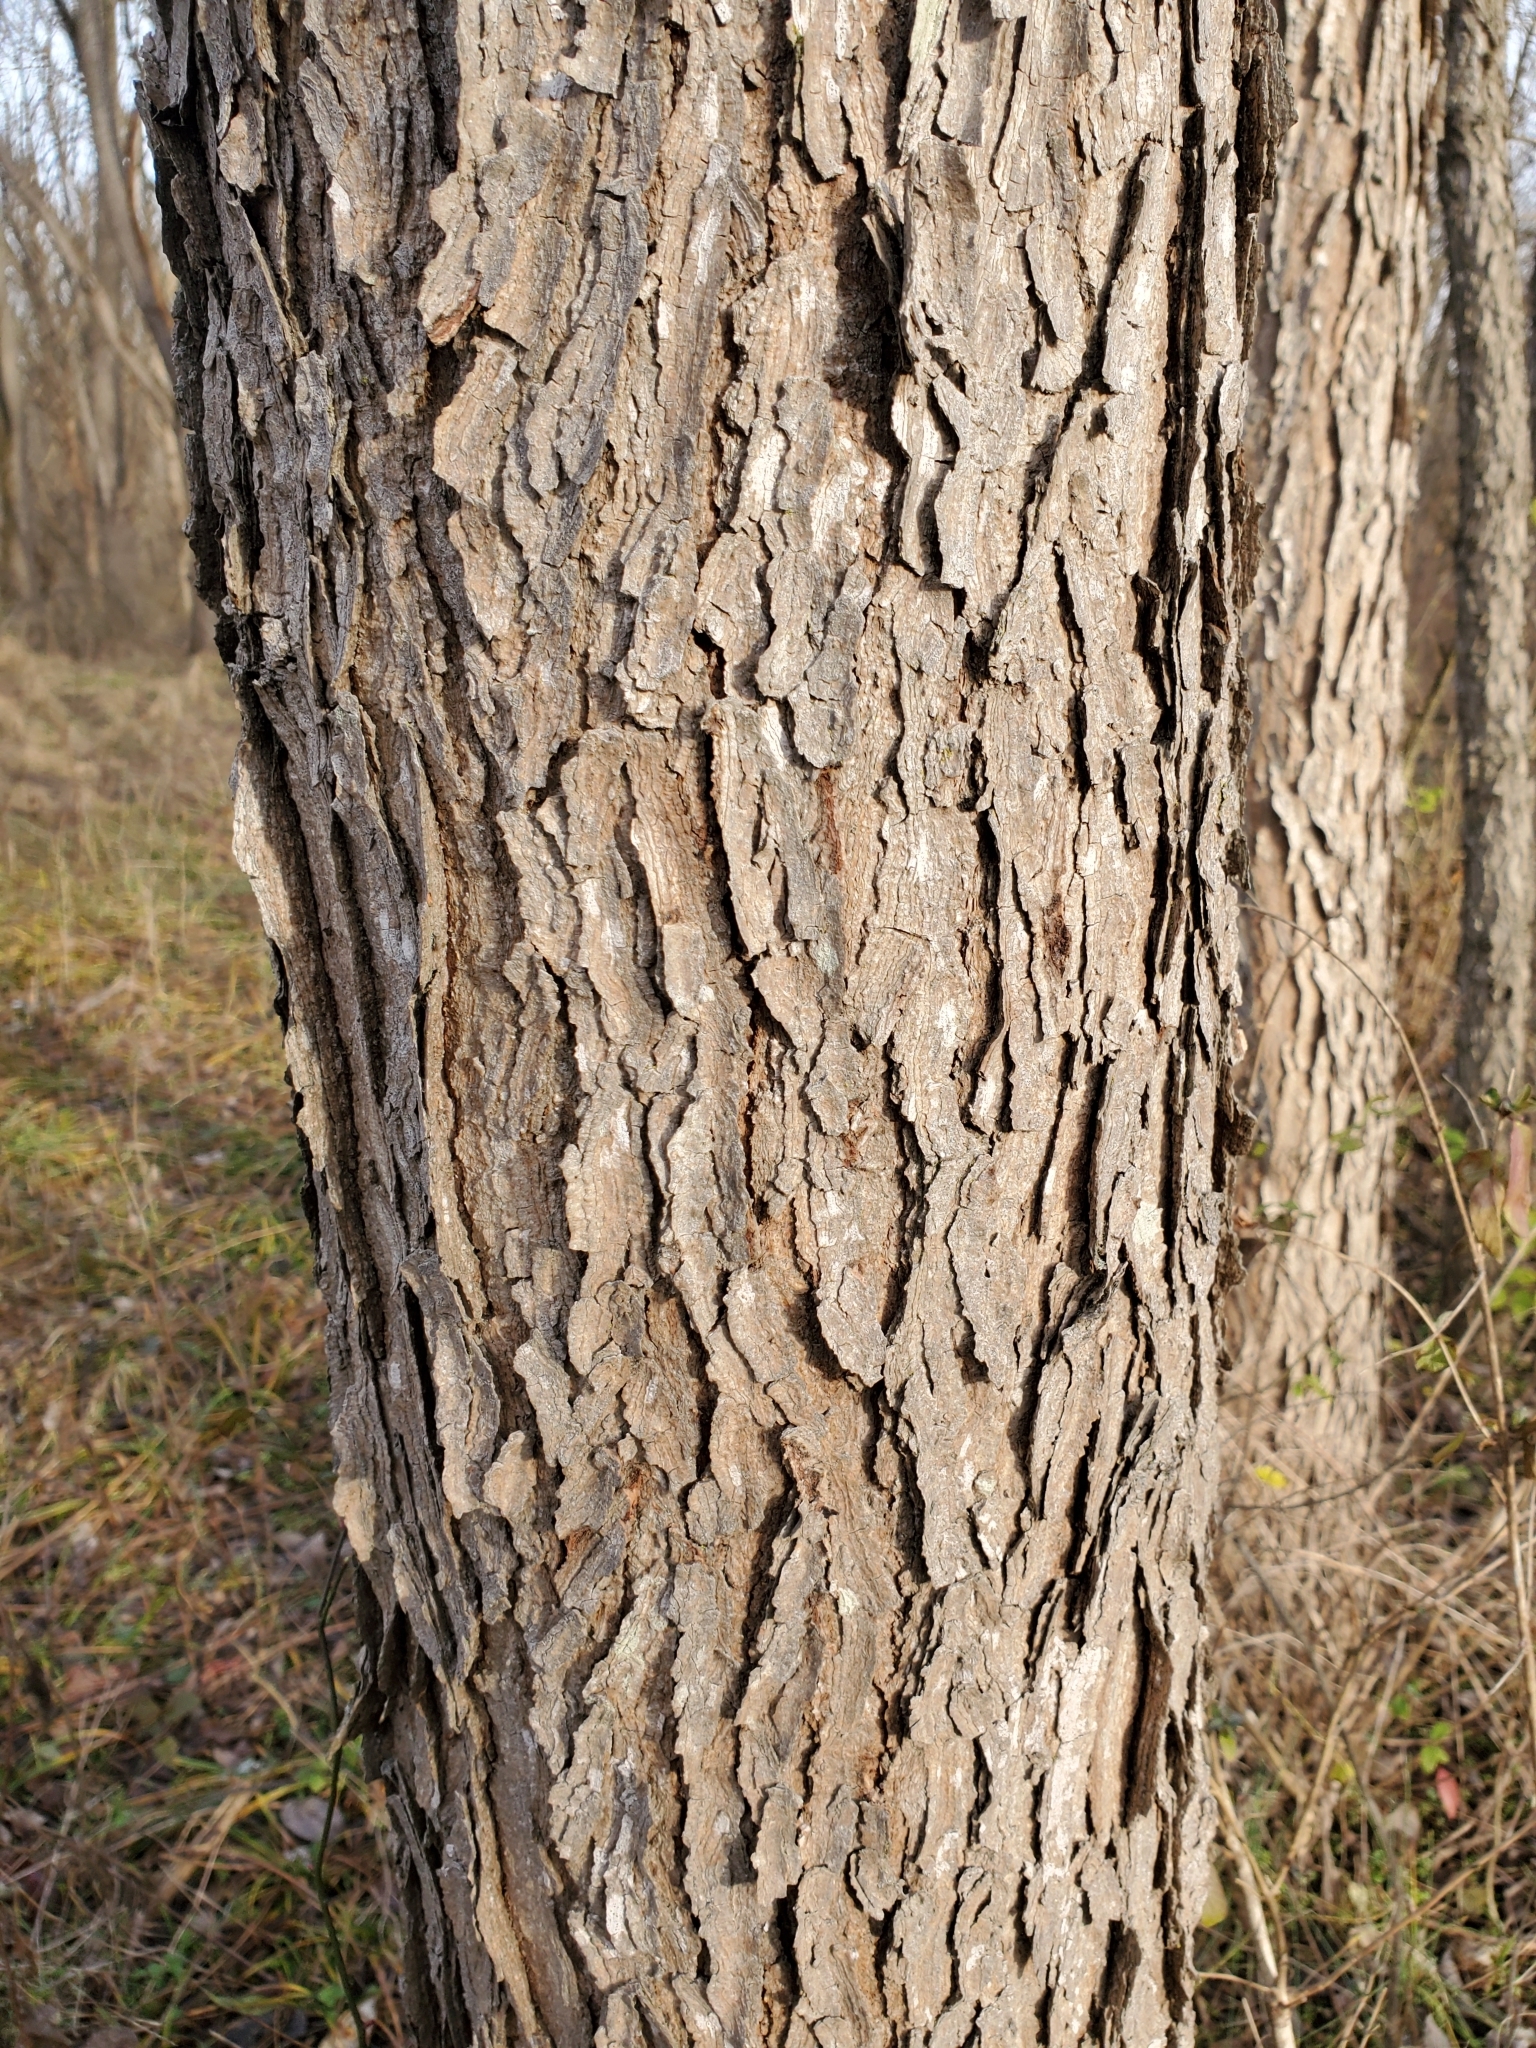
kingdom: Plantae
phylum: Tracheophyta
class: Magnoliopsida
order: Fabales
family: Fabaceae
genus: Gymnocladus
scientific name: Gymnocladus dioicus
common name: Kentucky coffee-tree
